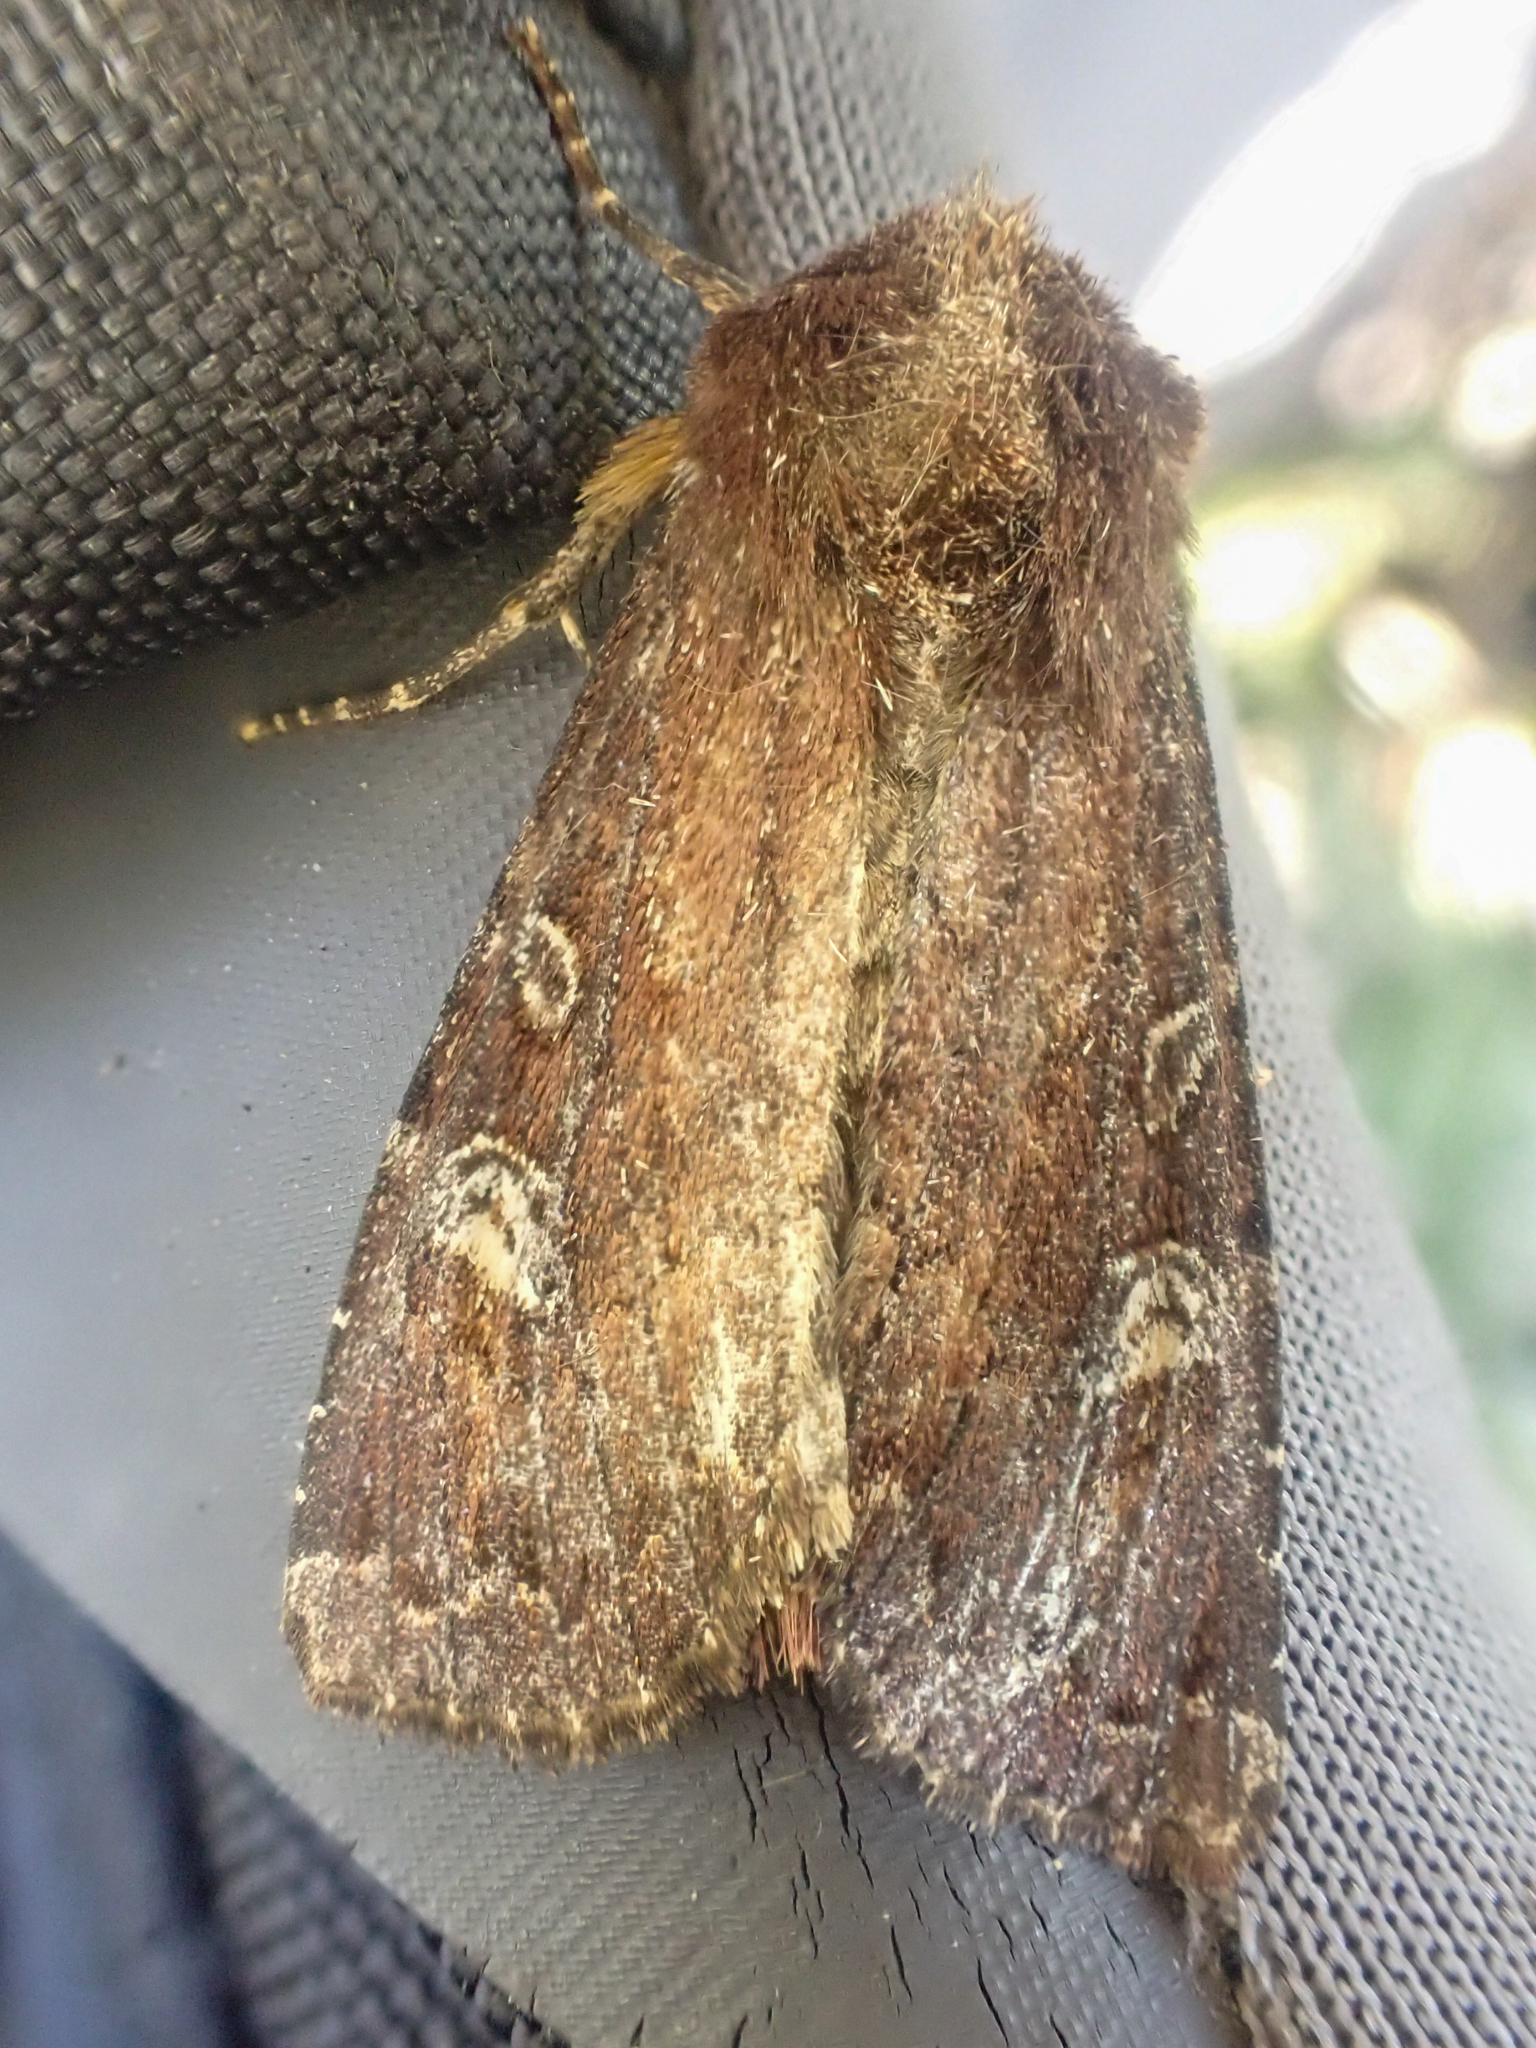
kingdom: Animalia
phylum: Arthropoda
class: Insecta
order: Lepidoptera
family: Noctuidae
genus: Apamea
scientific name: Apamea cogitata
